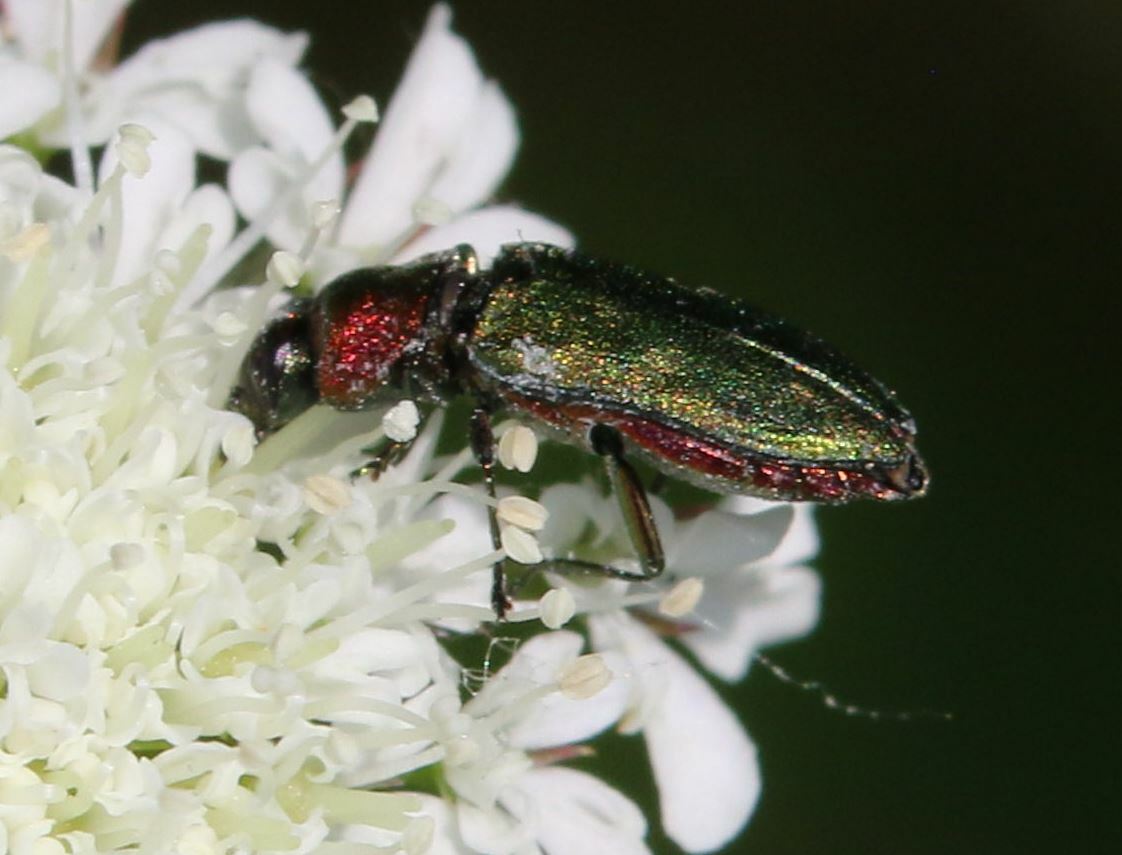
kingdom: Animalia
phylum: Arthropoda
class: Insecta
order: Coleoptera
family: Buprestidae
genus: Anthaxia
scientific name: Anthaxia nitidula
